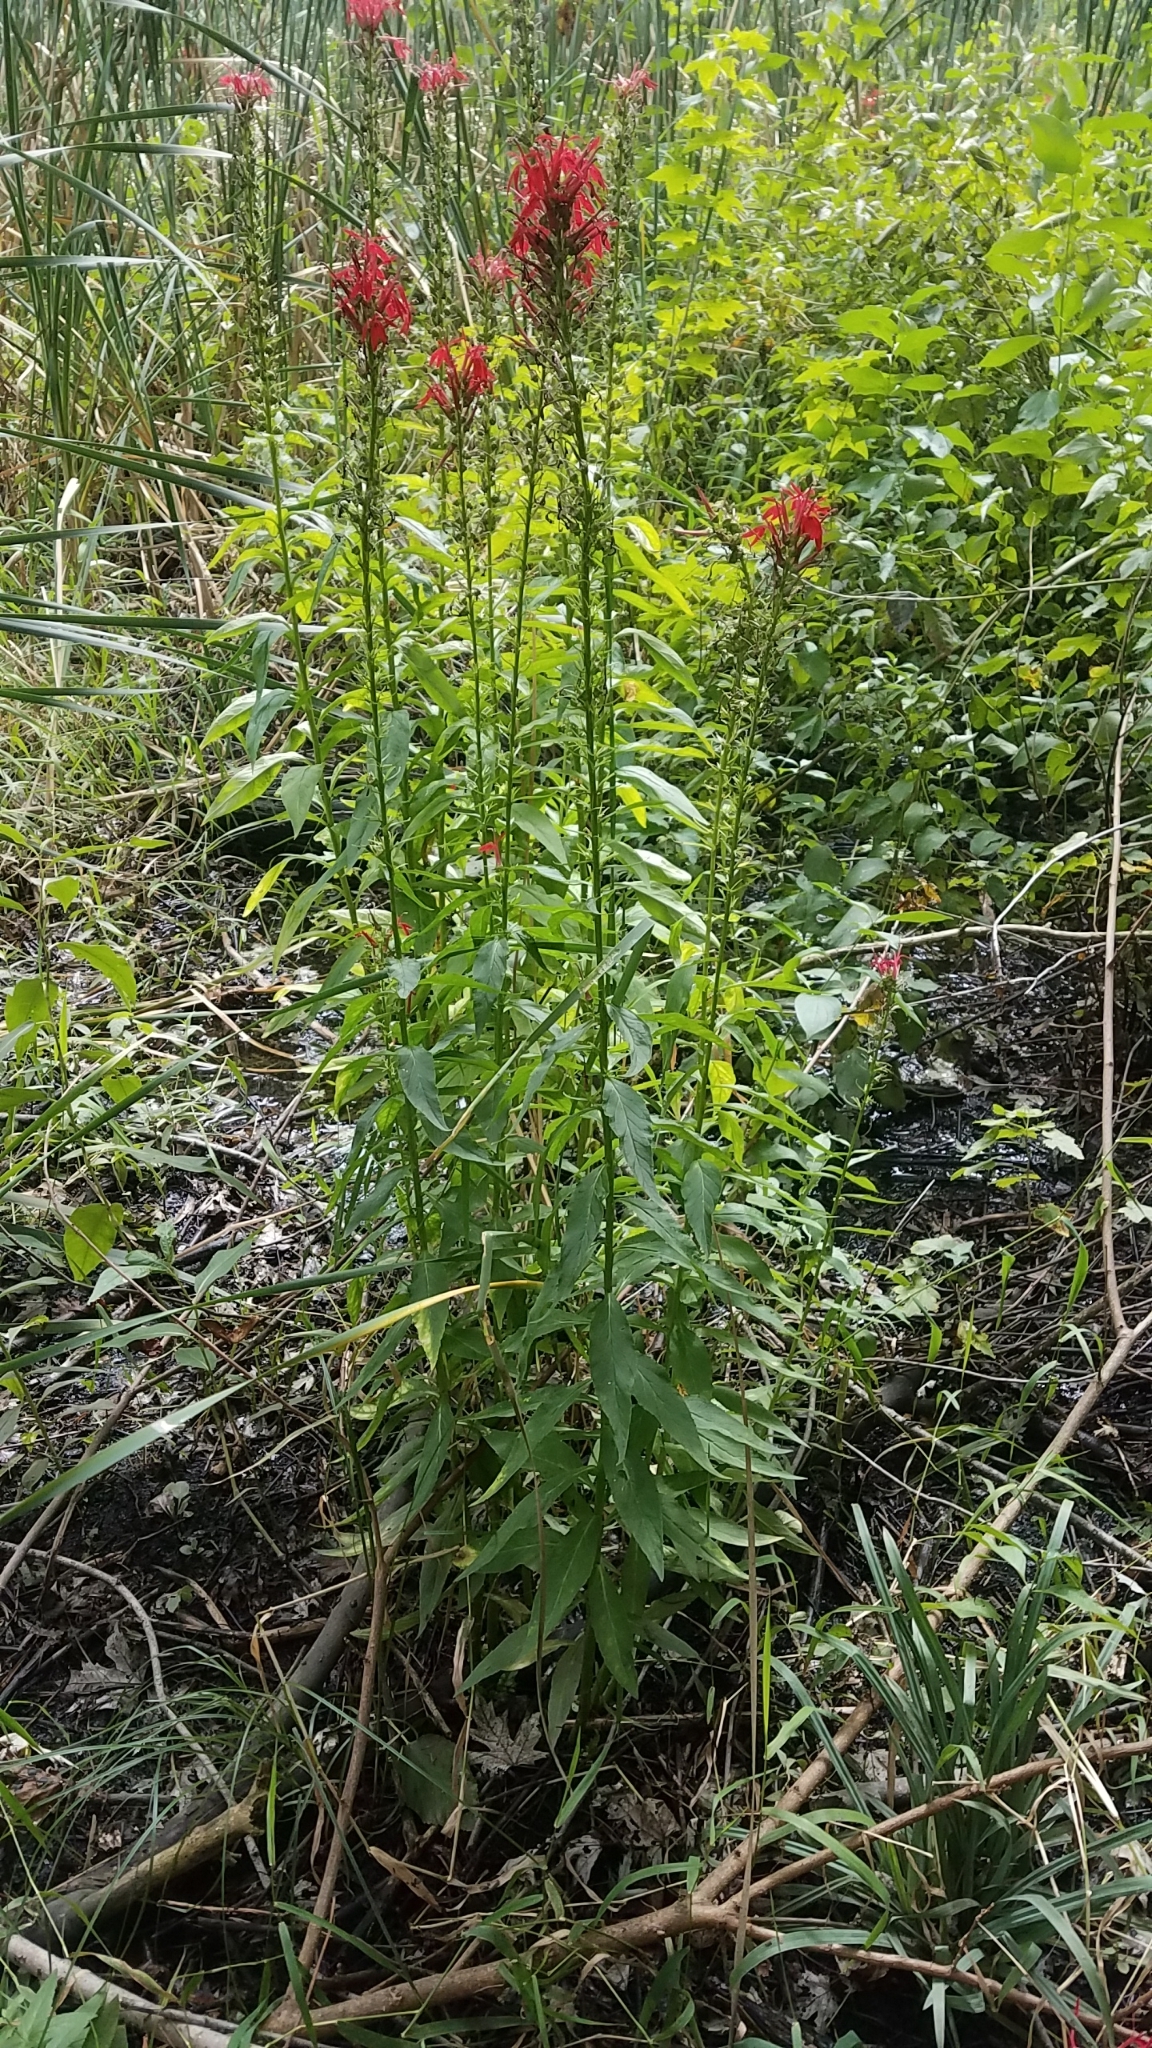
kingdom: Plantae
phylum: Tracheophyta
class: Magnoliopsida
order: Asterales
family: Campanulaceae
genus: Lobelia
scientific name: Lobelia cardinalis
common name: Cardinal flower
